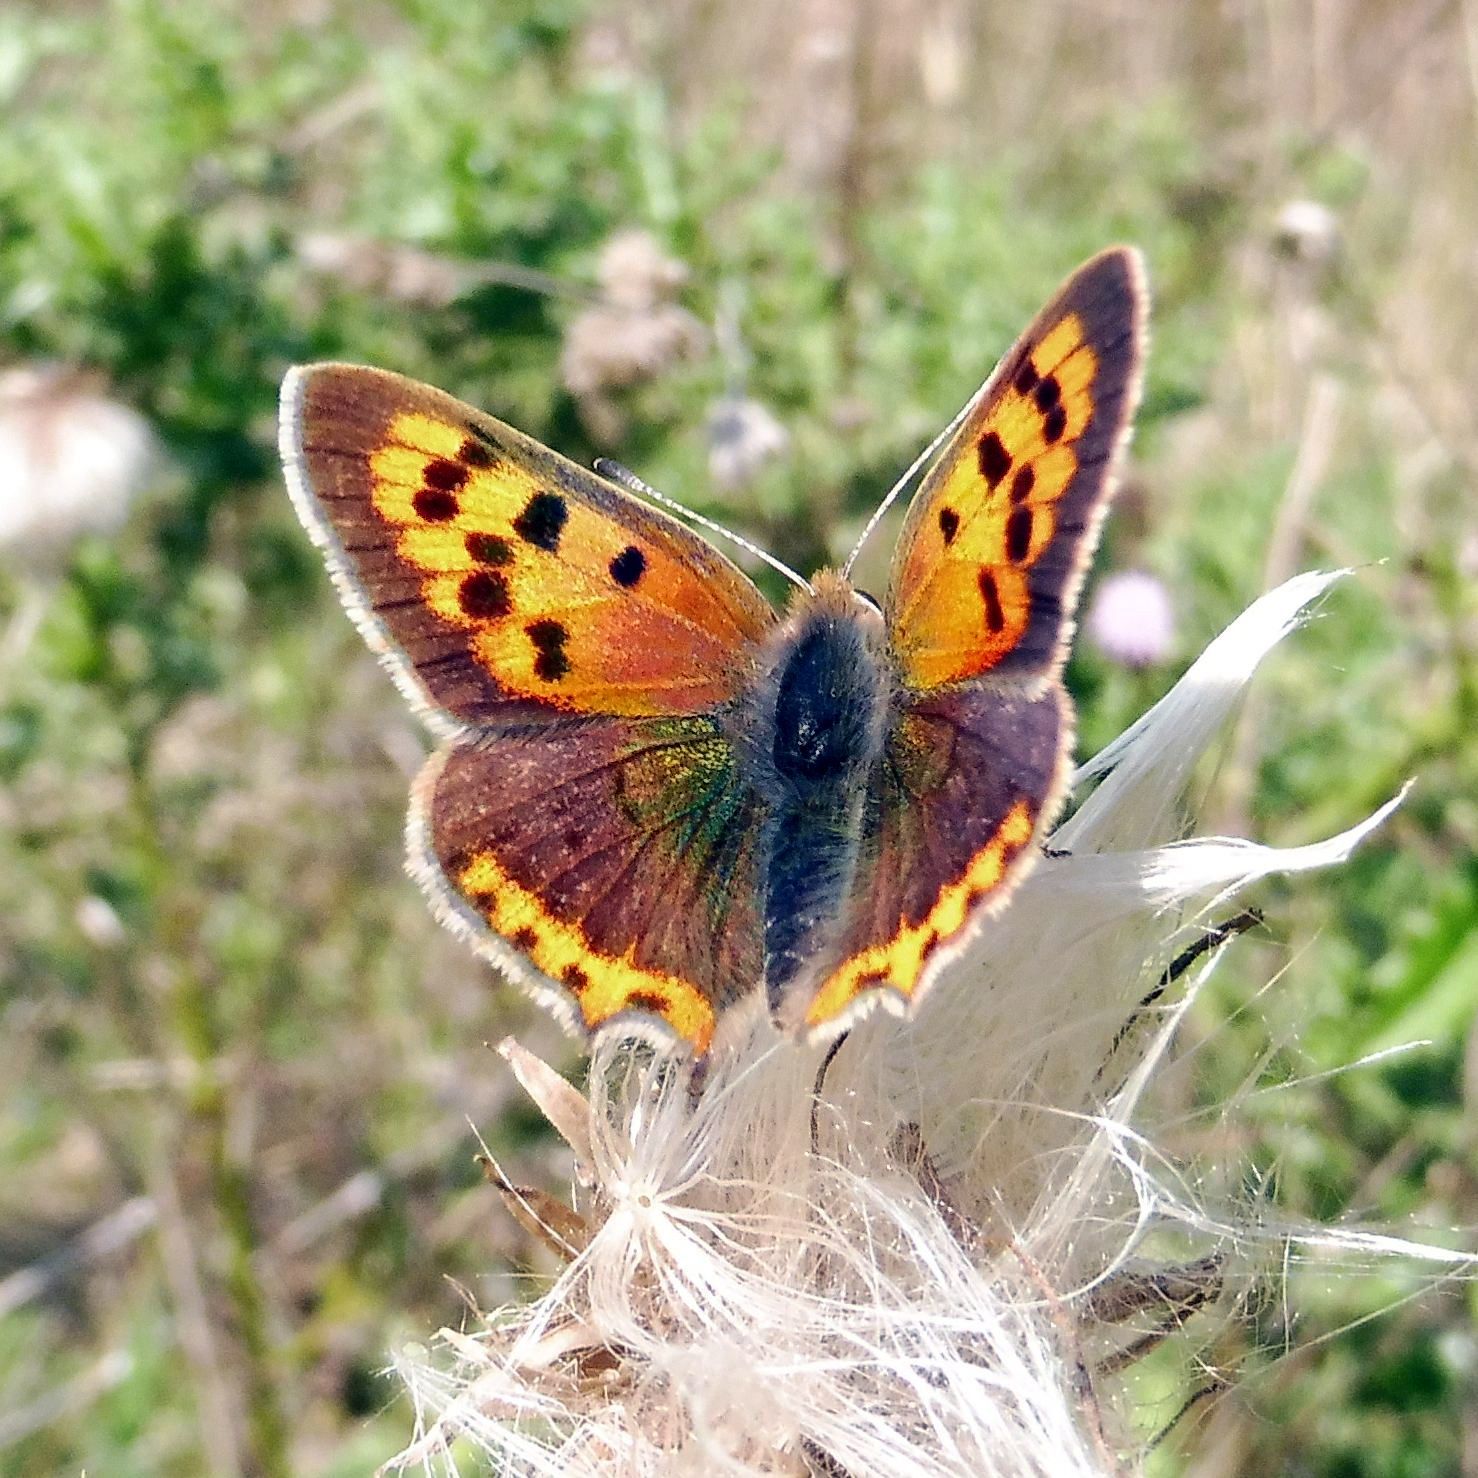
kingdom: Animalia
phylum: Arthropoda
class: Insecta
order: Lepidoptera
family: Lycaenidae
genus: Lycaena
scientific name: Lycaena phlaeas
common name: Small copper
